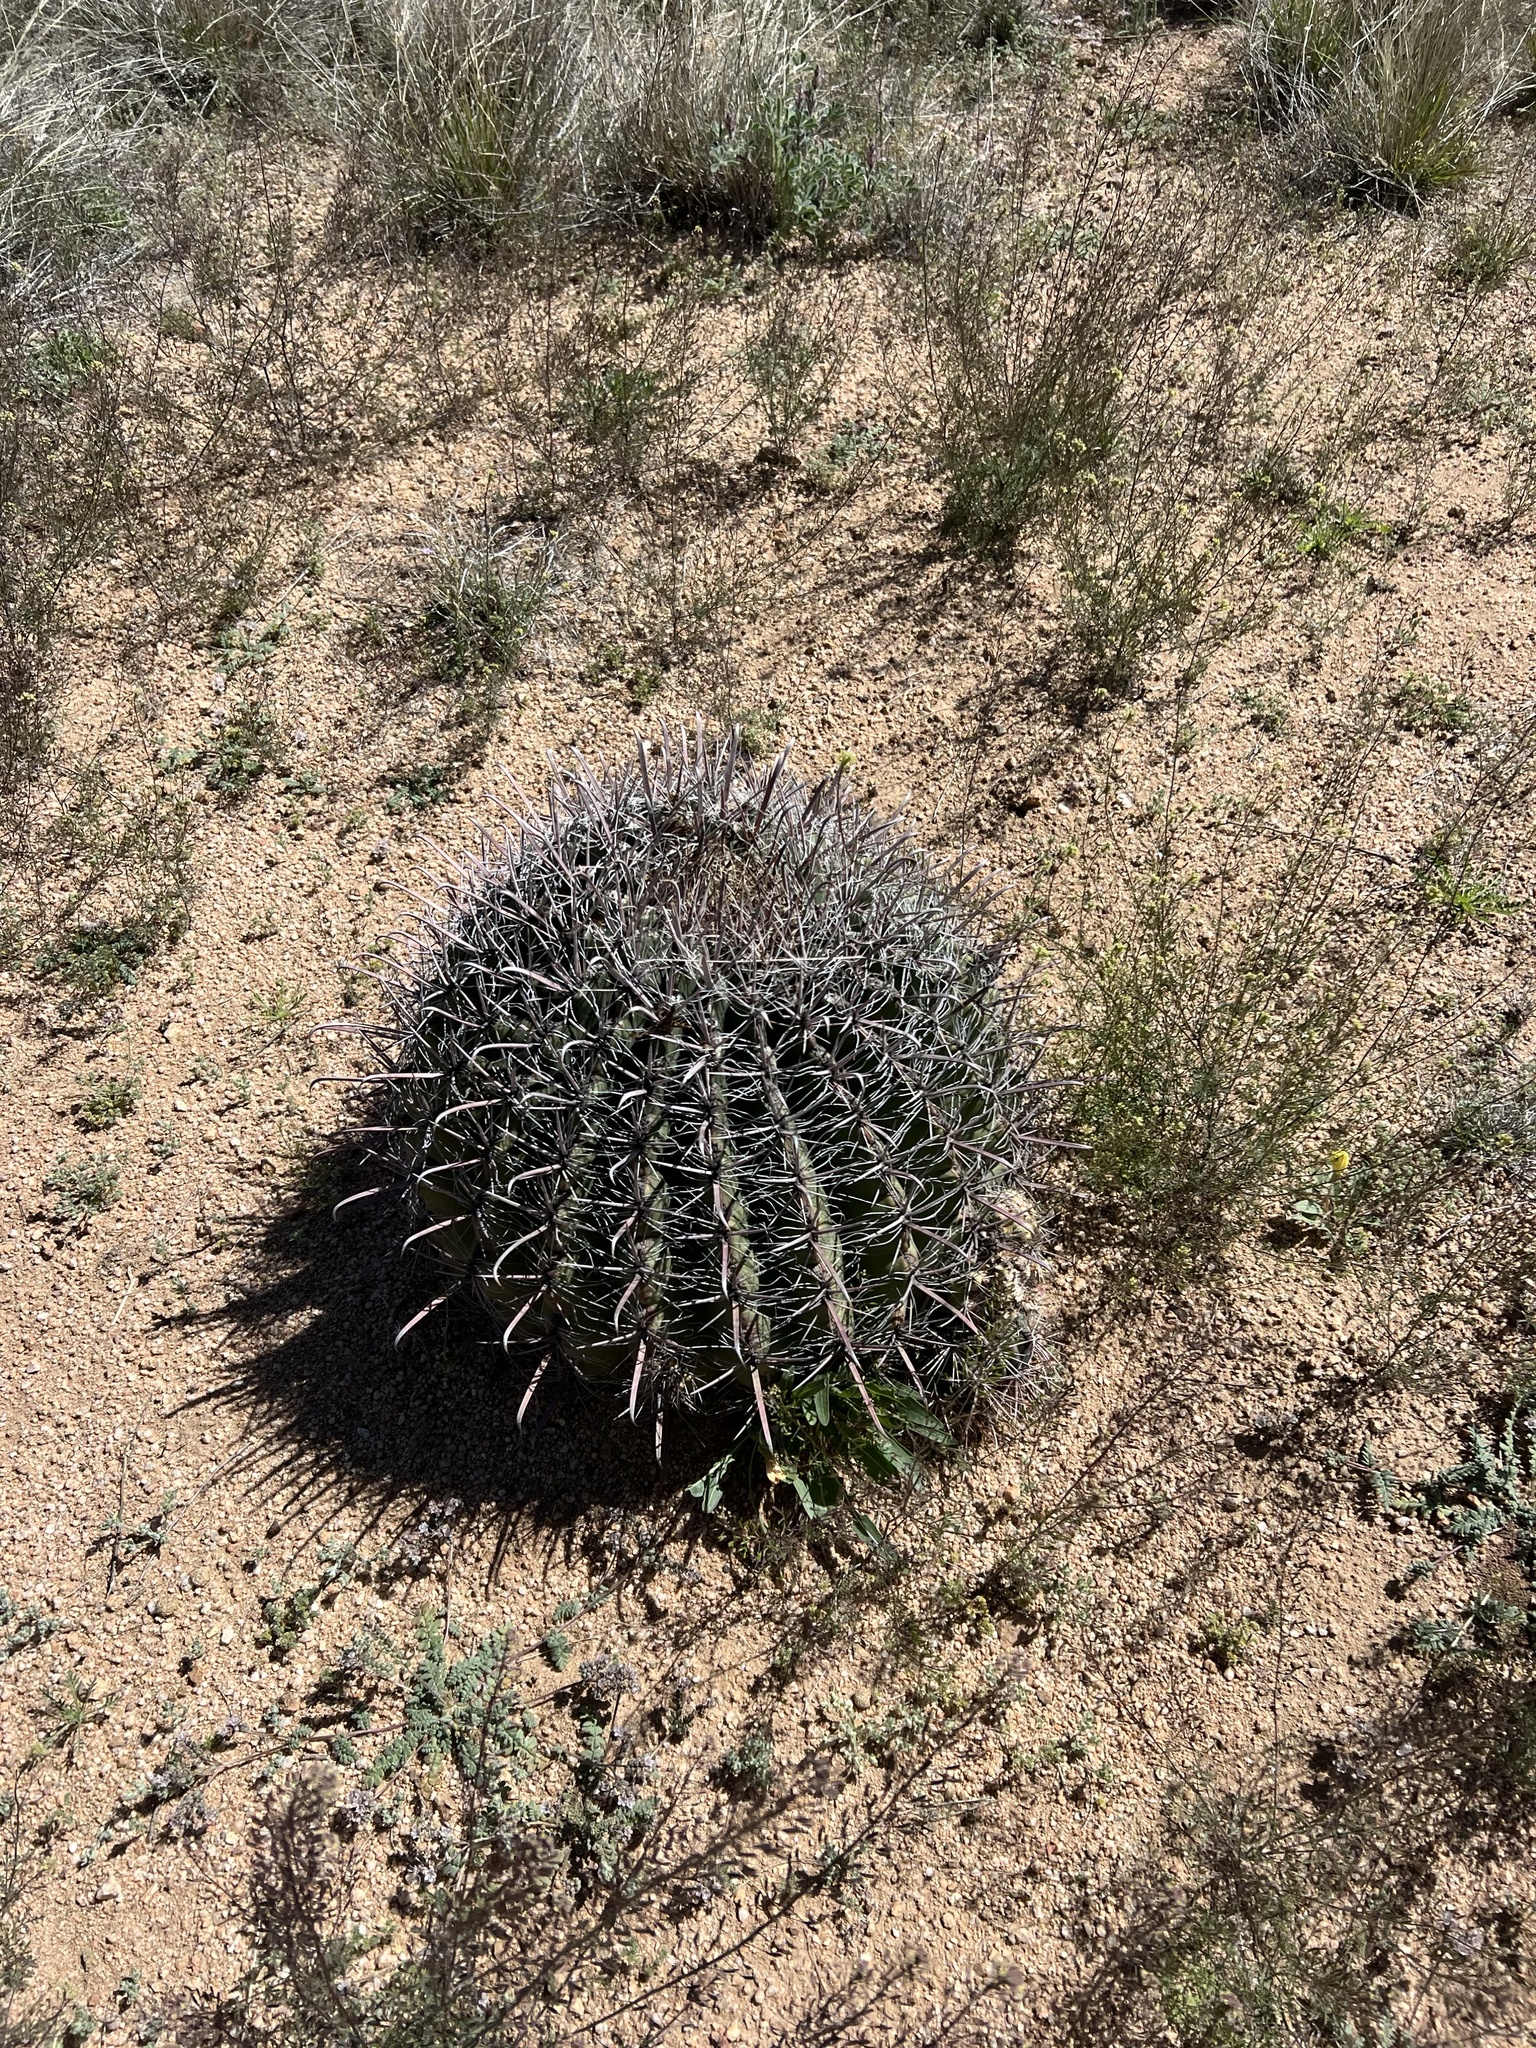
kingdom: Plantae
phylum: Tracheophyta
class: Magnoliopsida
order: Caryophyllales
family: Cactaceae
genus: Ferocactus
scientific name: Ferocactus wislizeni
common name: Candy barrel cactus
